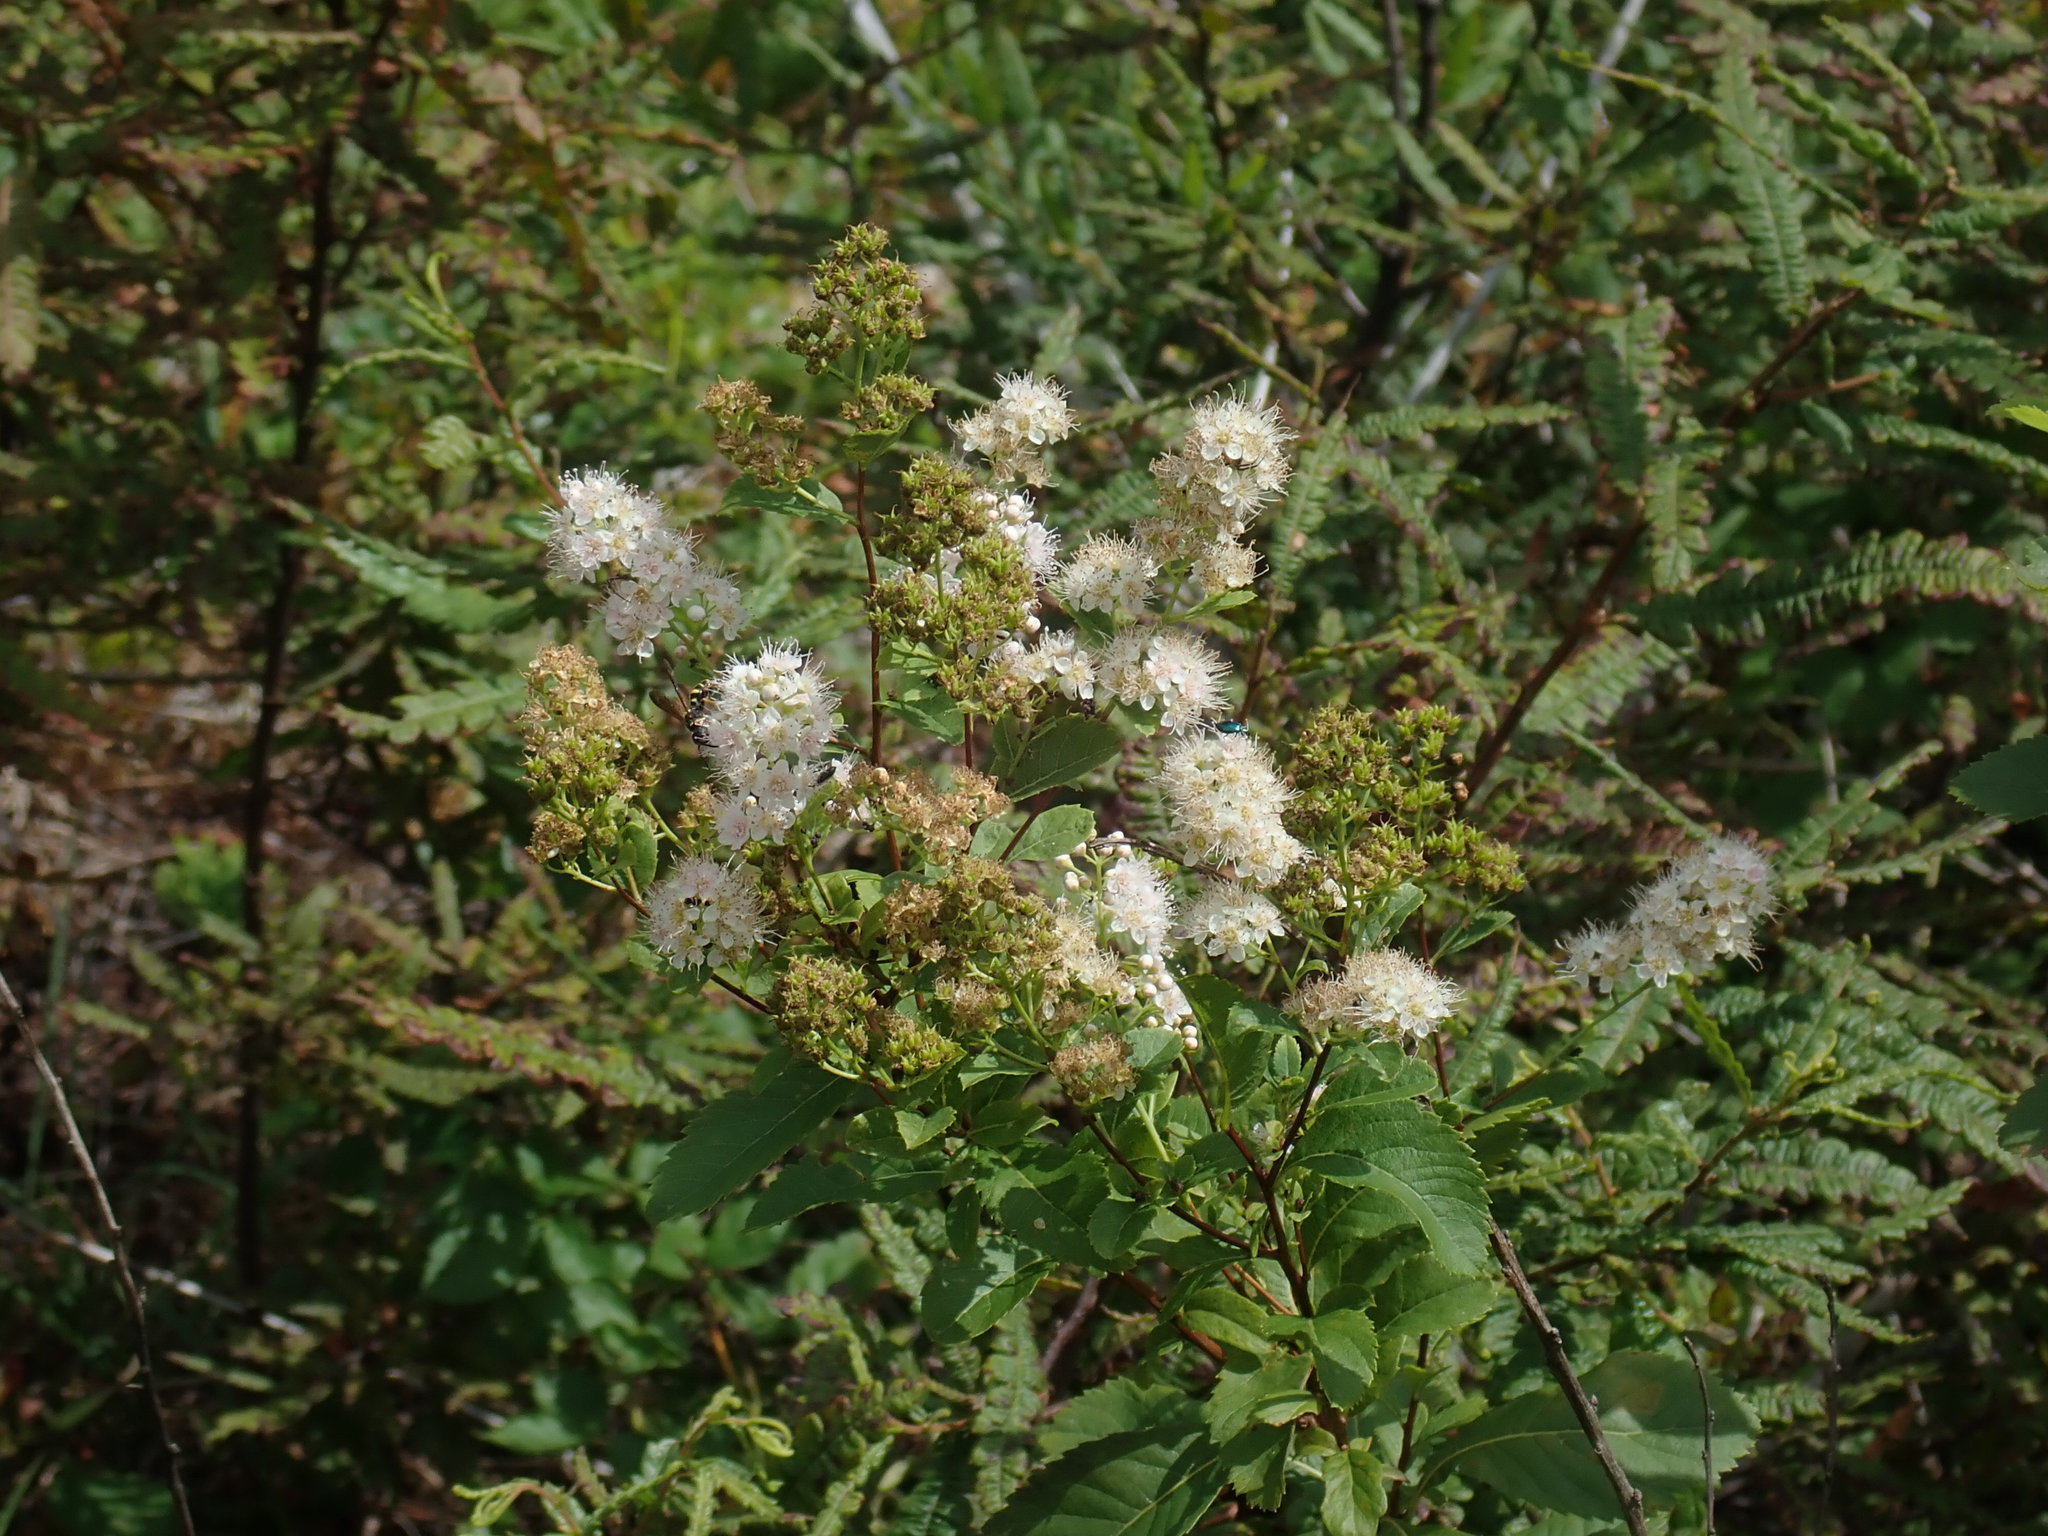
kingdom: Plantae
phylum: Tracheophyta
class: Magnoliopsida
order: Rosales
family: Rosaceae
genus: Spiraea
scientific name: Spiraea alba
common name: Pale bridewort
